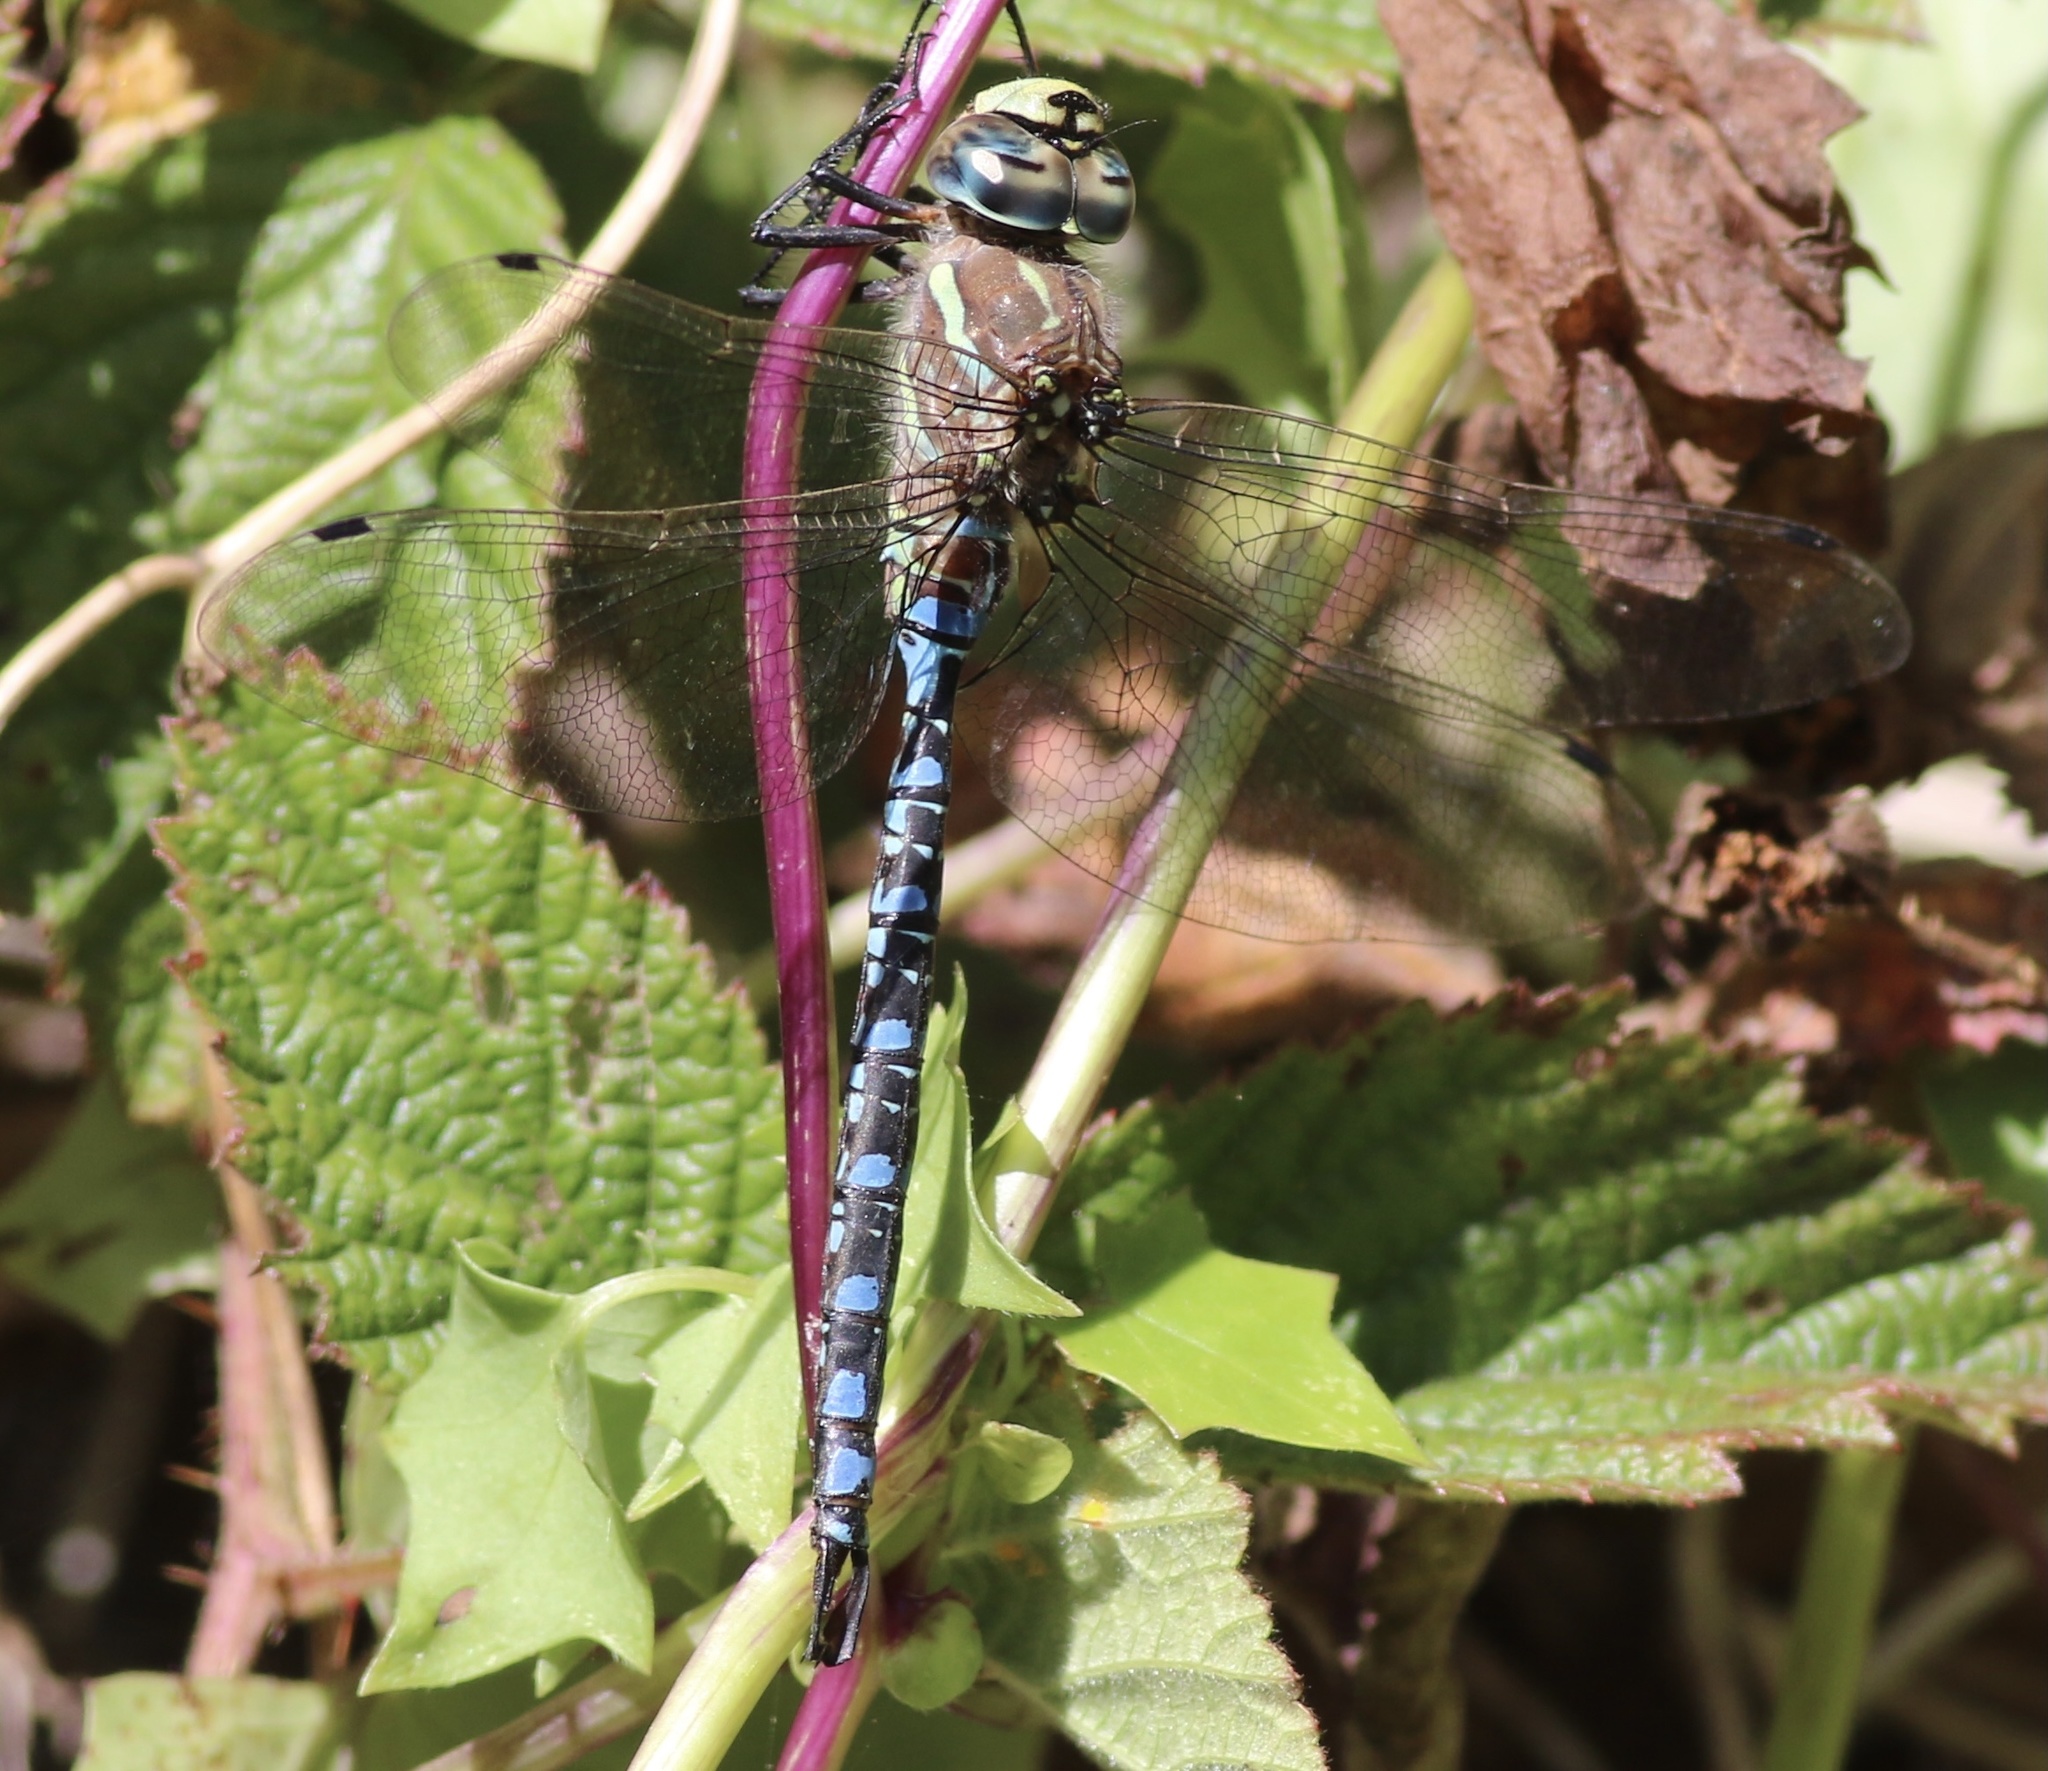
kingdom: Animalia
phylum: Arthropoda
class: Insecta
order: Odonata
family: Aeshnidae
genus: Aeshna
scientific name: Aeshna palmata
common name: Paddle-tailed darner
